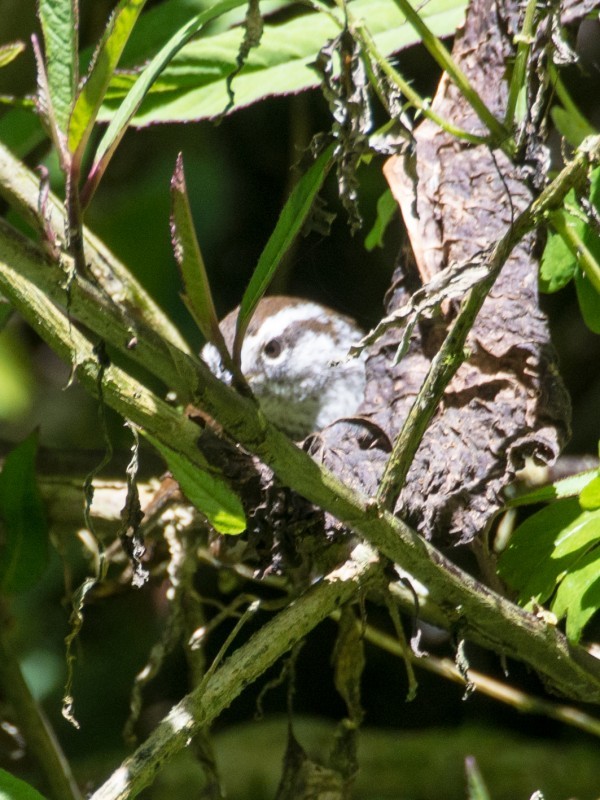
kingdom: Animalia
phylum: Chordata
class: Aves
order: Passeriformes
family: Troglodytidae
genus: Thryorchilus
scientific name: Thryorchilus browni
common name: Timberline wren
